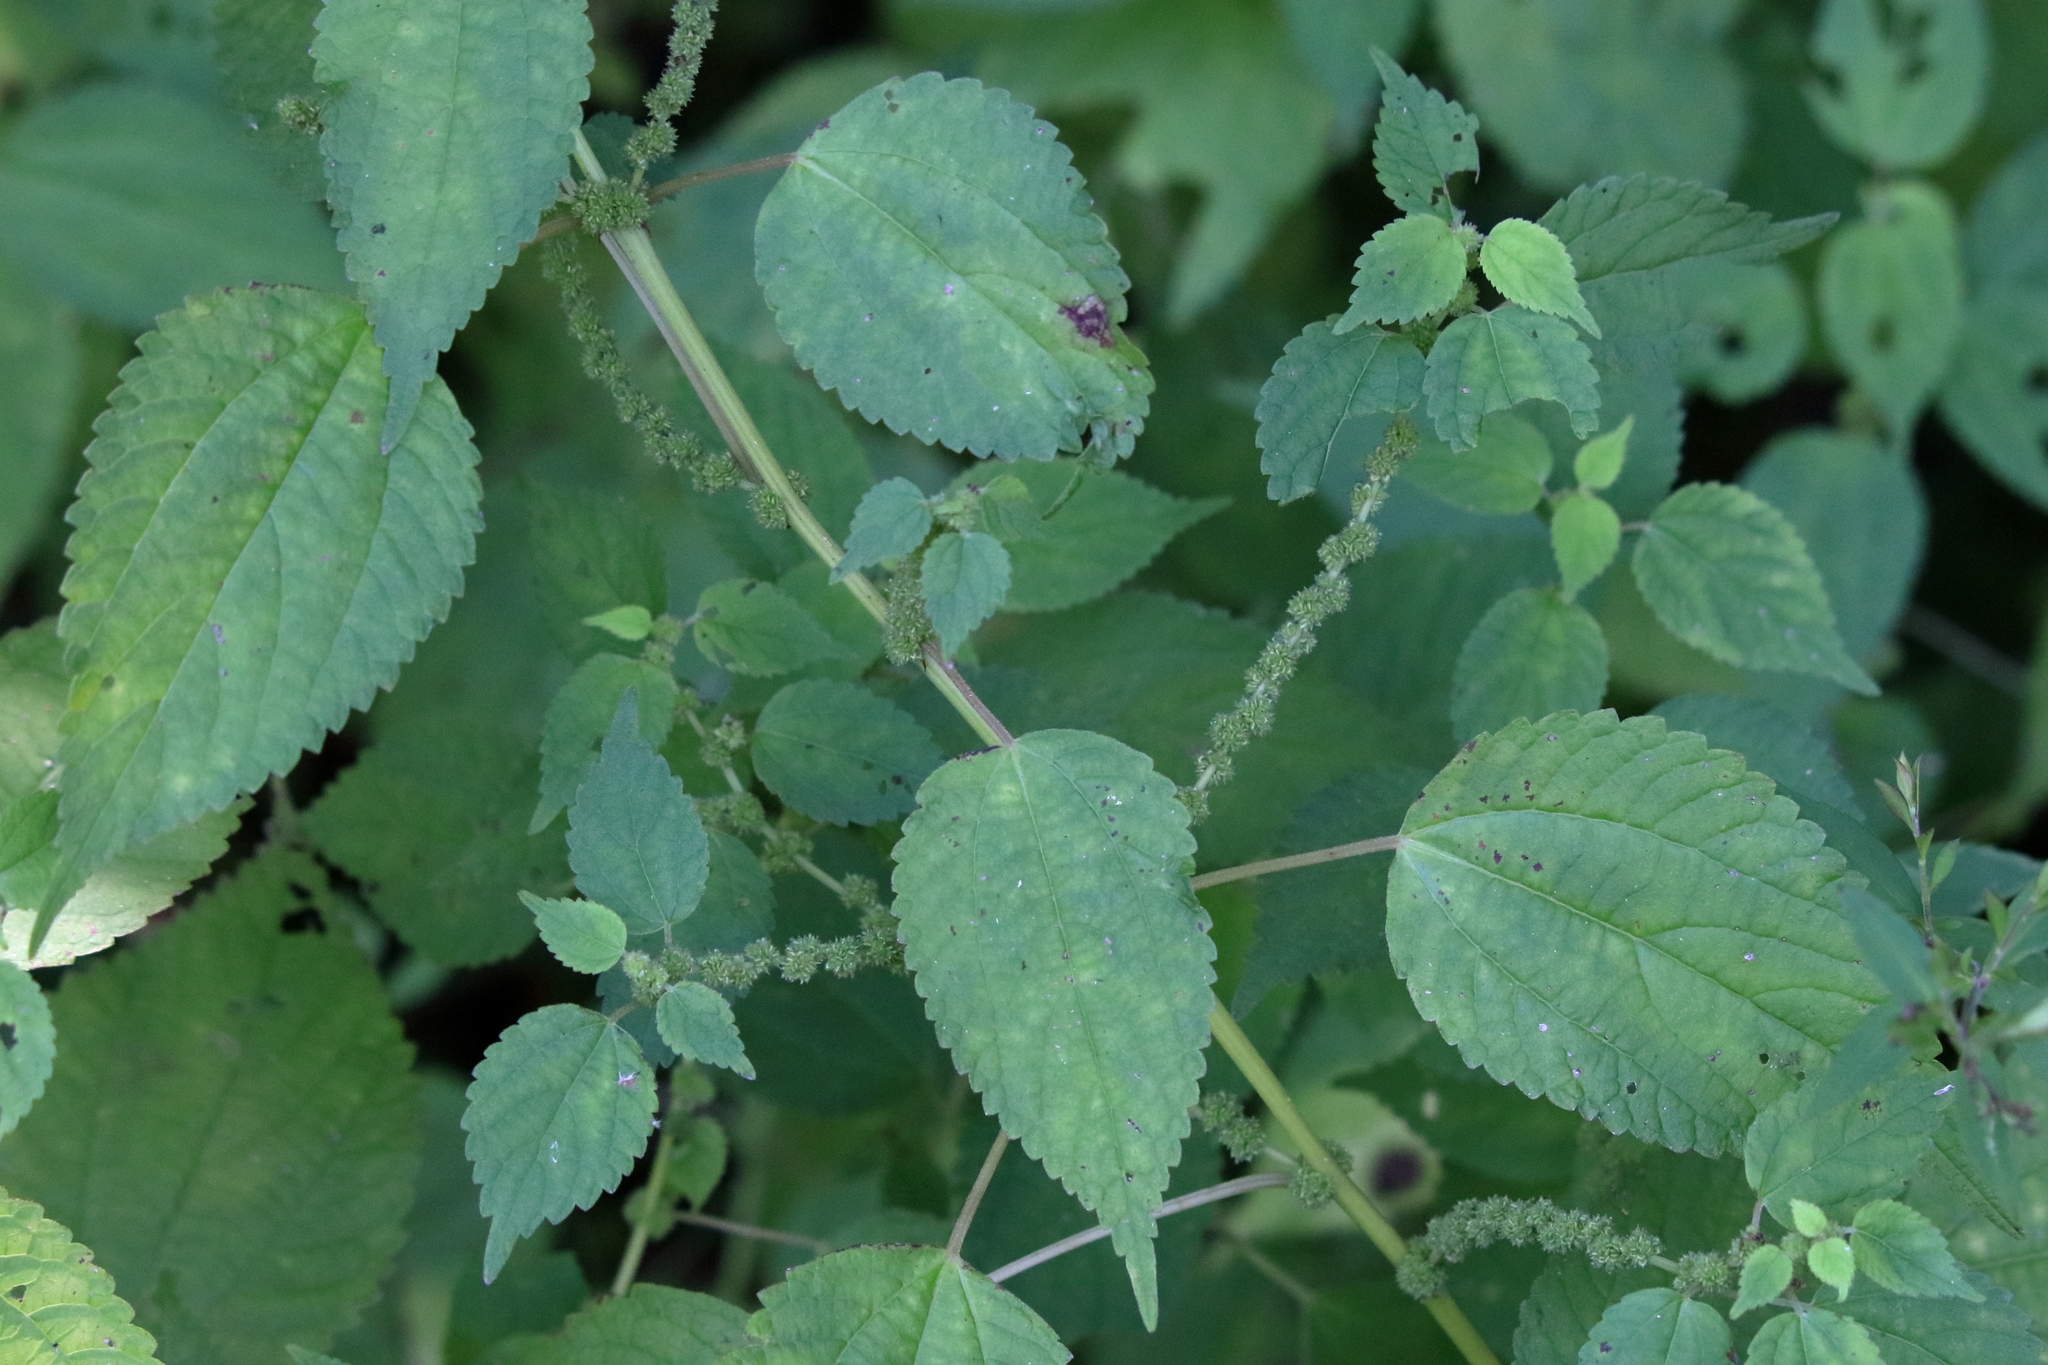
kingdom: Plantae
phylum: Tracheophyta
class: Magnoliopsida
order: Rosales
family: Urticaceae
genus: Boehmeria
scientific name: Boehmeria cylindrica
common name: Bog-hemp
